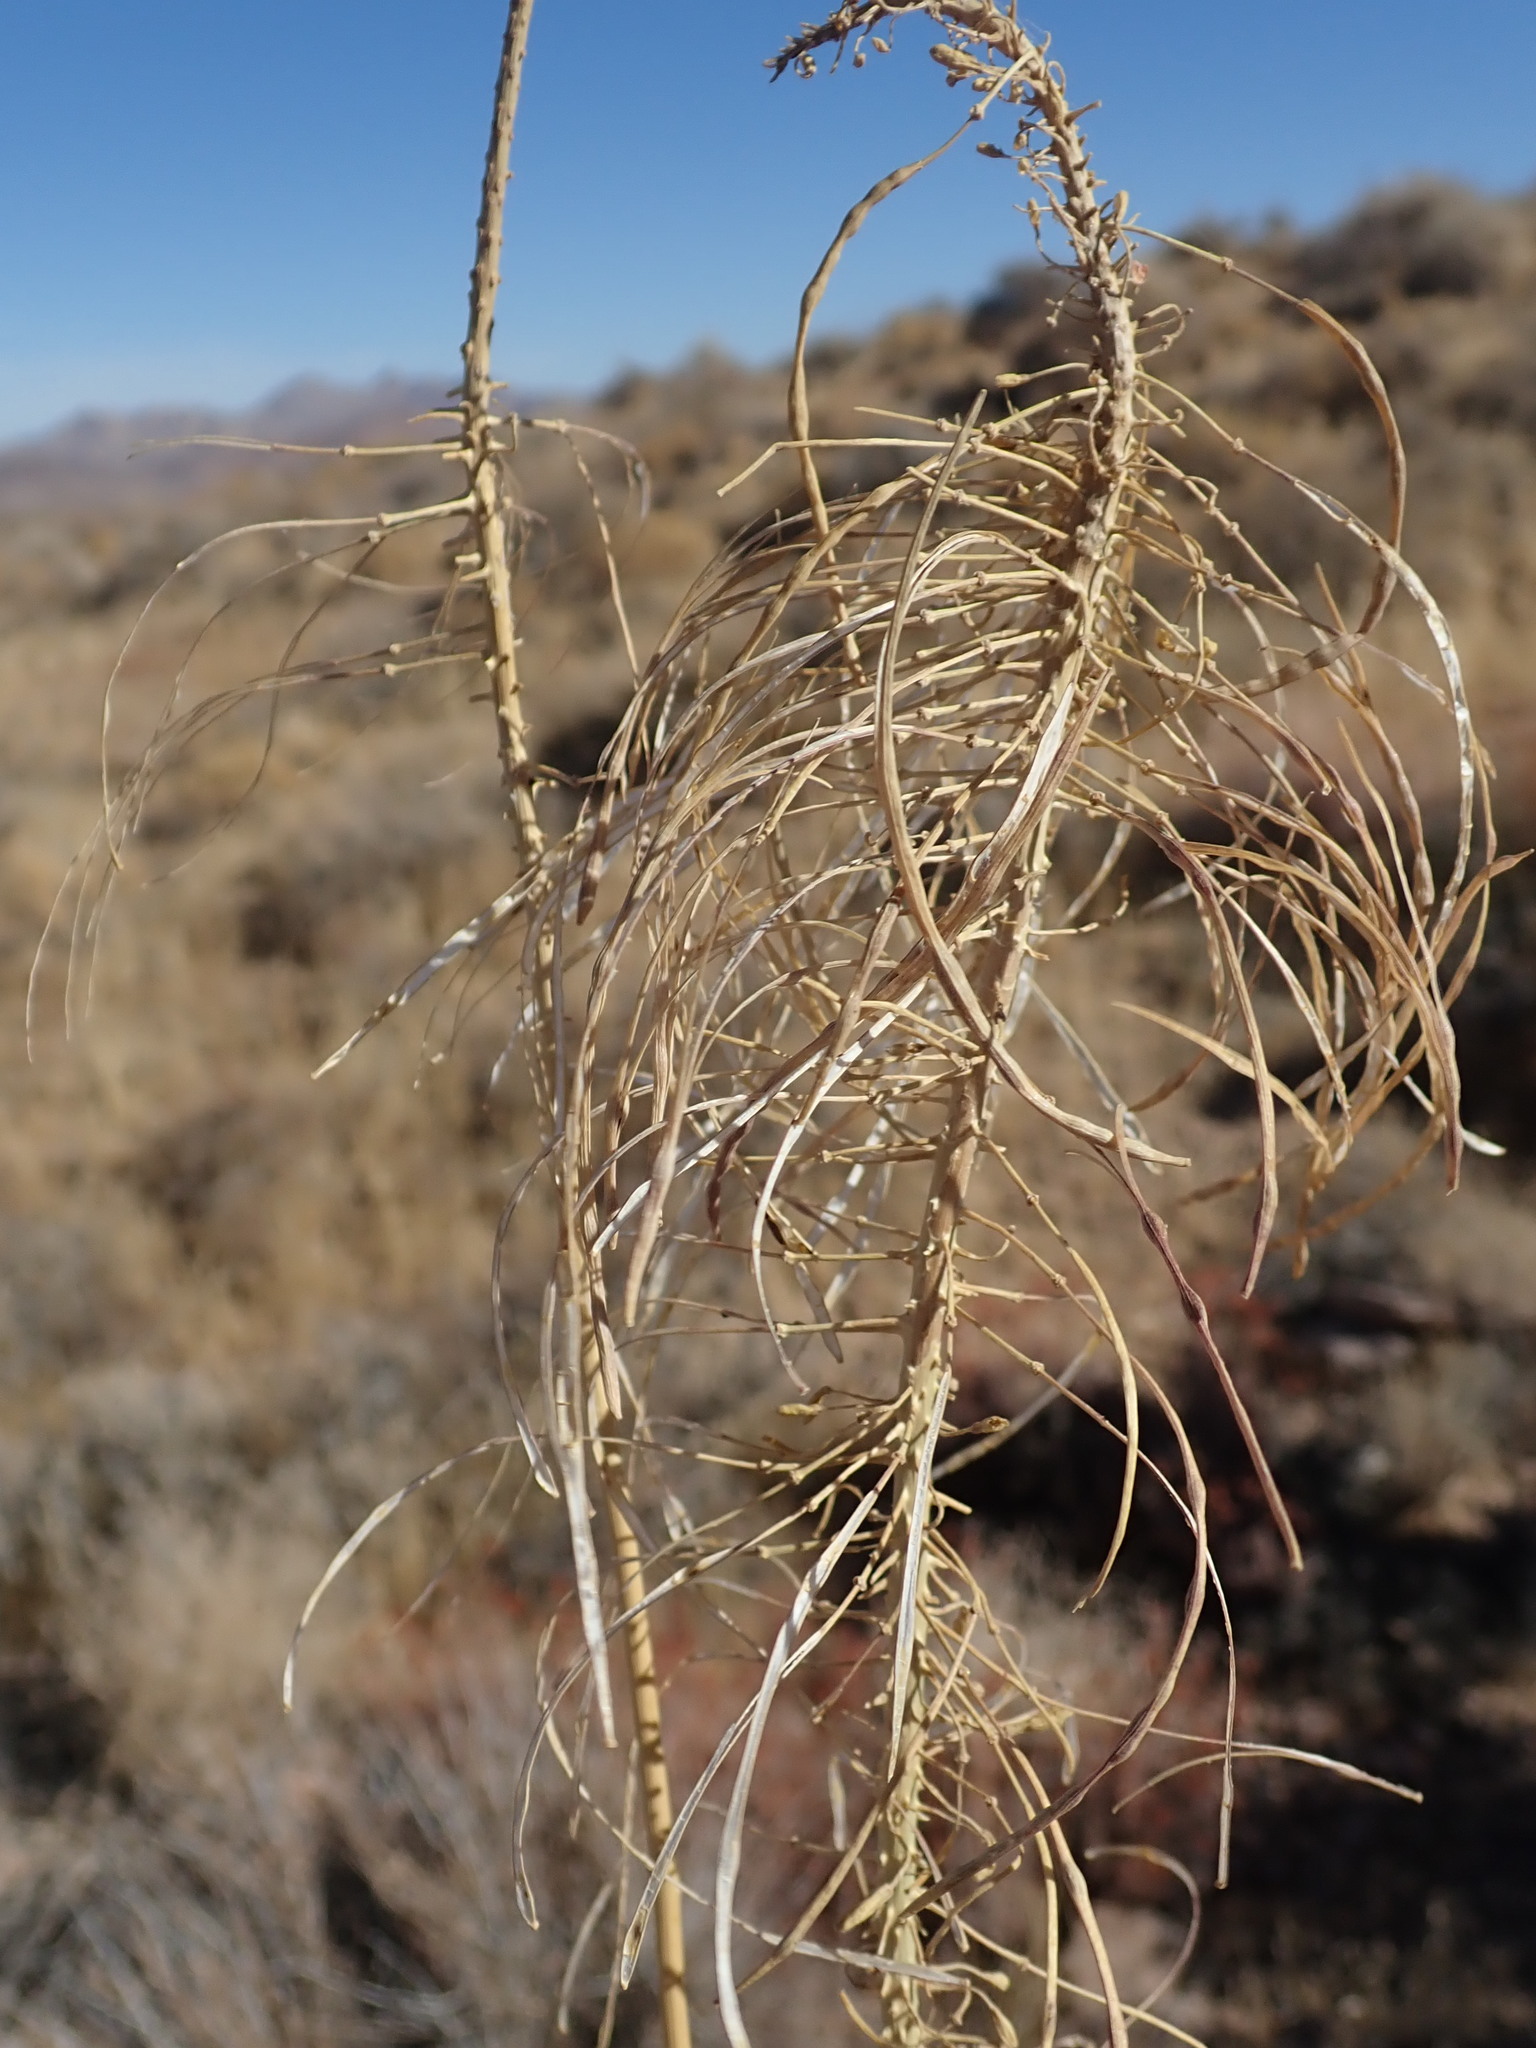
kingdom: Plantae
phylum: Tracheophyta
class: Magnoliopsida
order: Brassicales
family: Brassicaceae
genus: Stanleya
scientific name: Stanleya elata
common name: Panamint prince's plume
